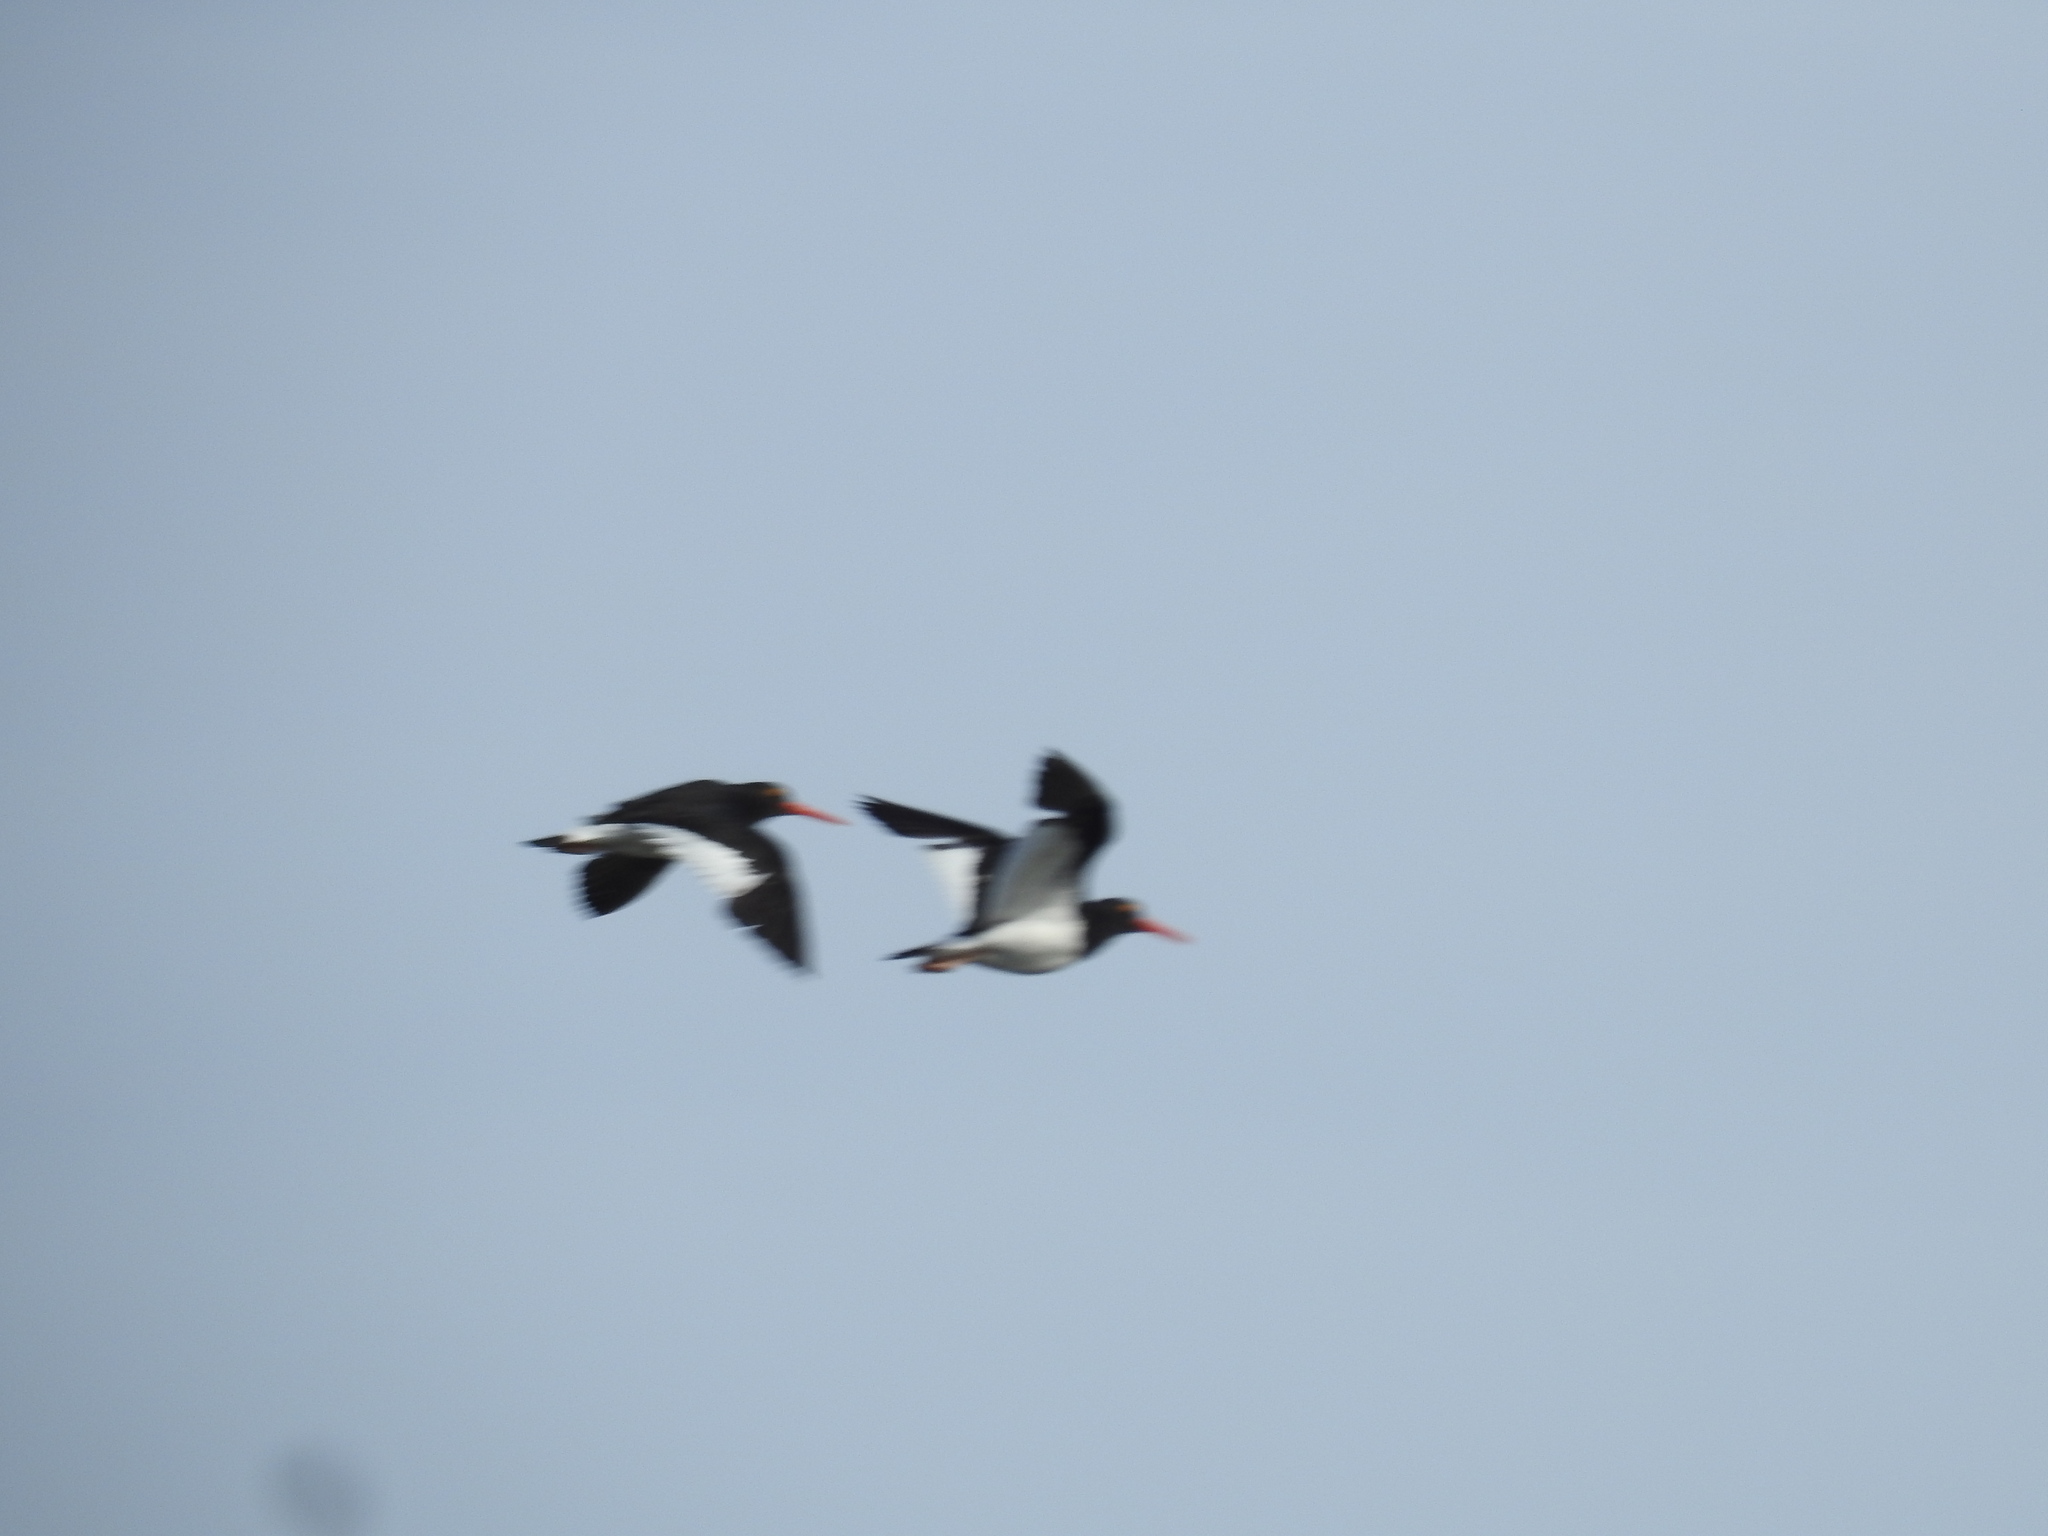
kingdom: Animalia
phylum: Chordata
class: Aves
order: Charadriiformes
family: Haematopodidae
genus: Haematopus
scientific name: Haematopus leucopodus
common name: Magellanic oystercatcher
